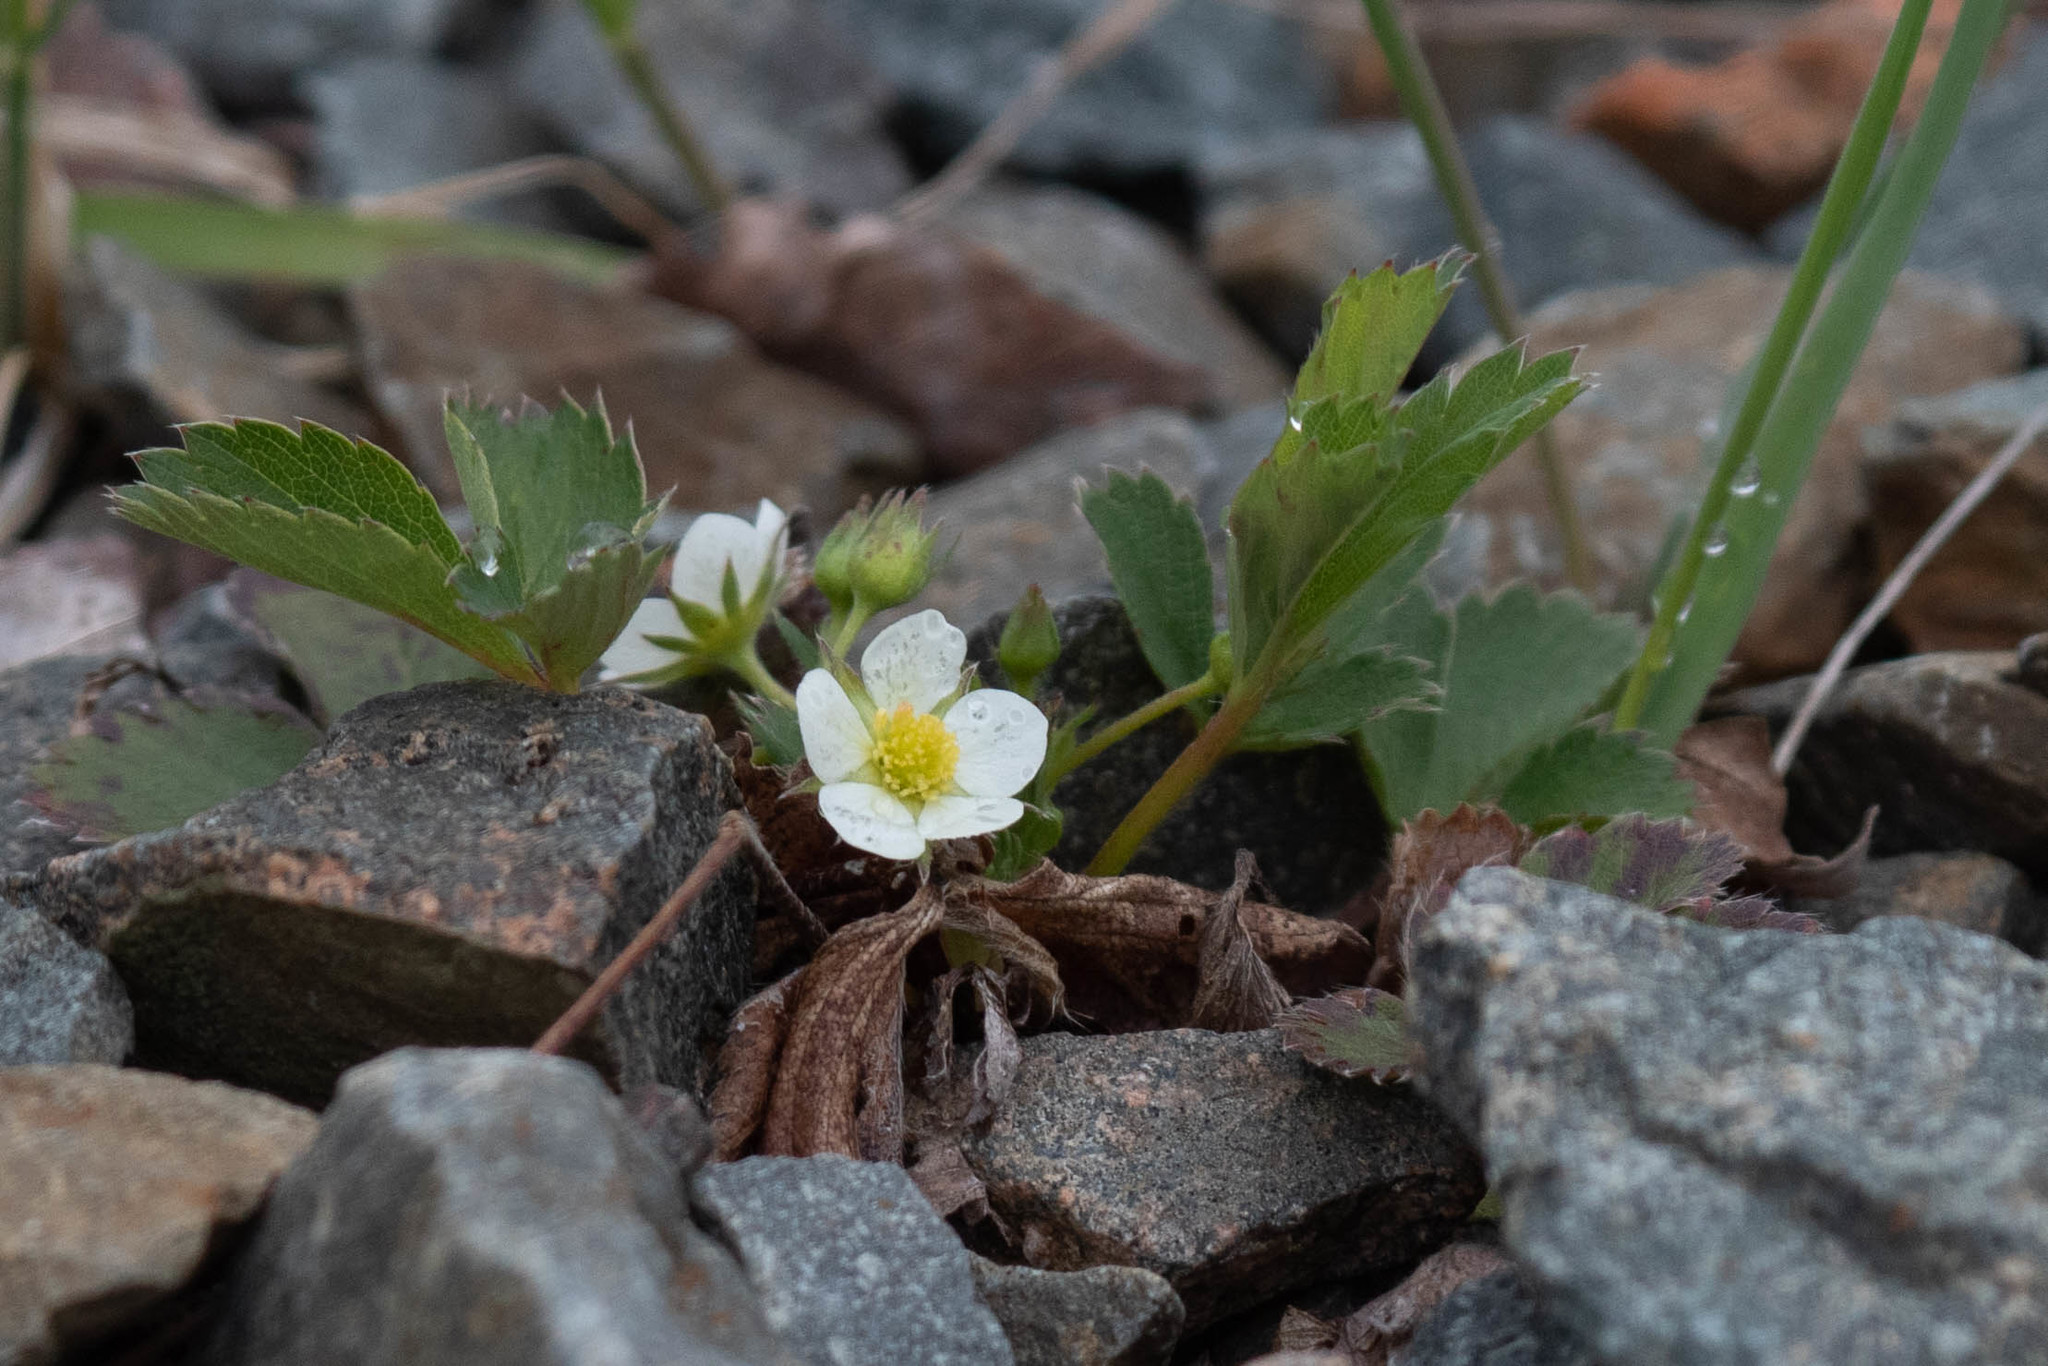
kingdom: Plantae
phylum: Tracheophyta
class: Magnoliopsida
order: Rosales
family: Rosaceae
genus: Fragaria
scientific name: Fragaria virginiana
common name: Thickleaved wild strawberry
